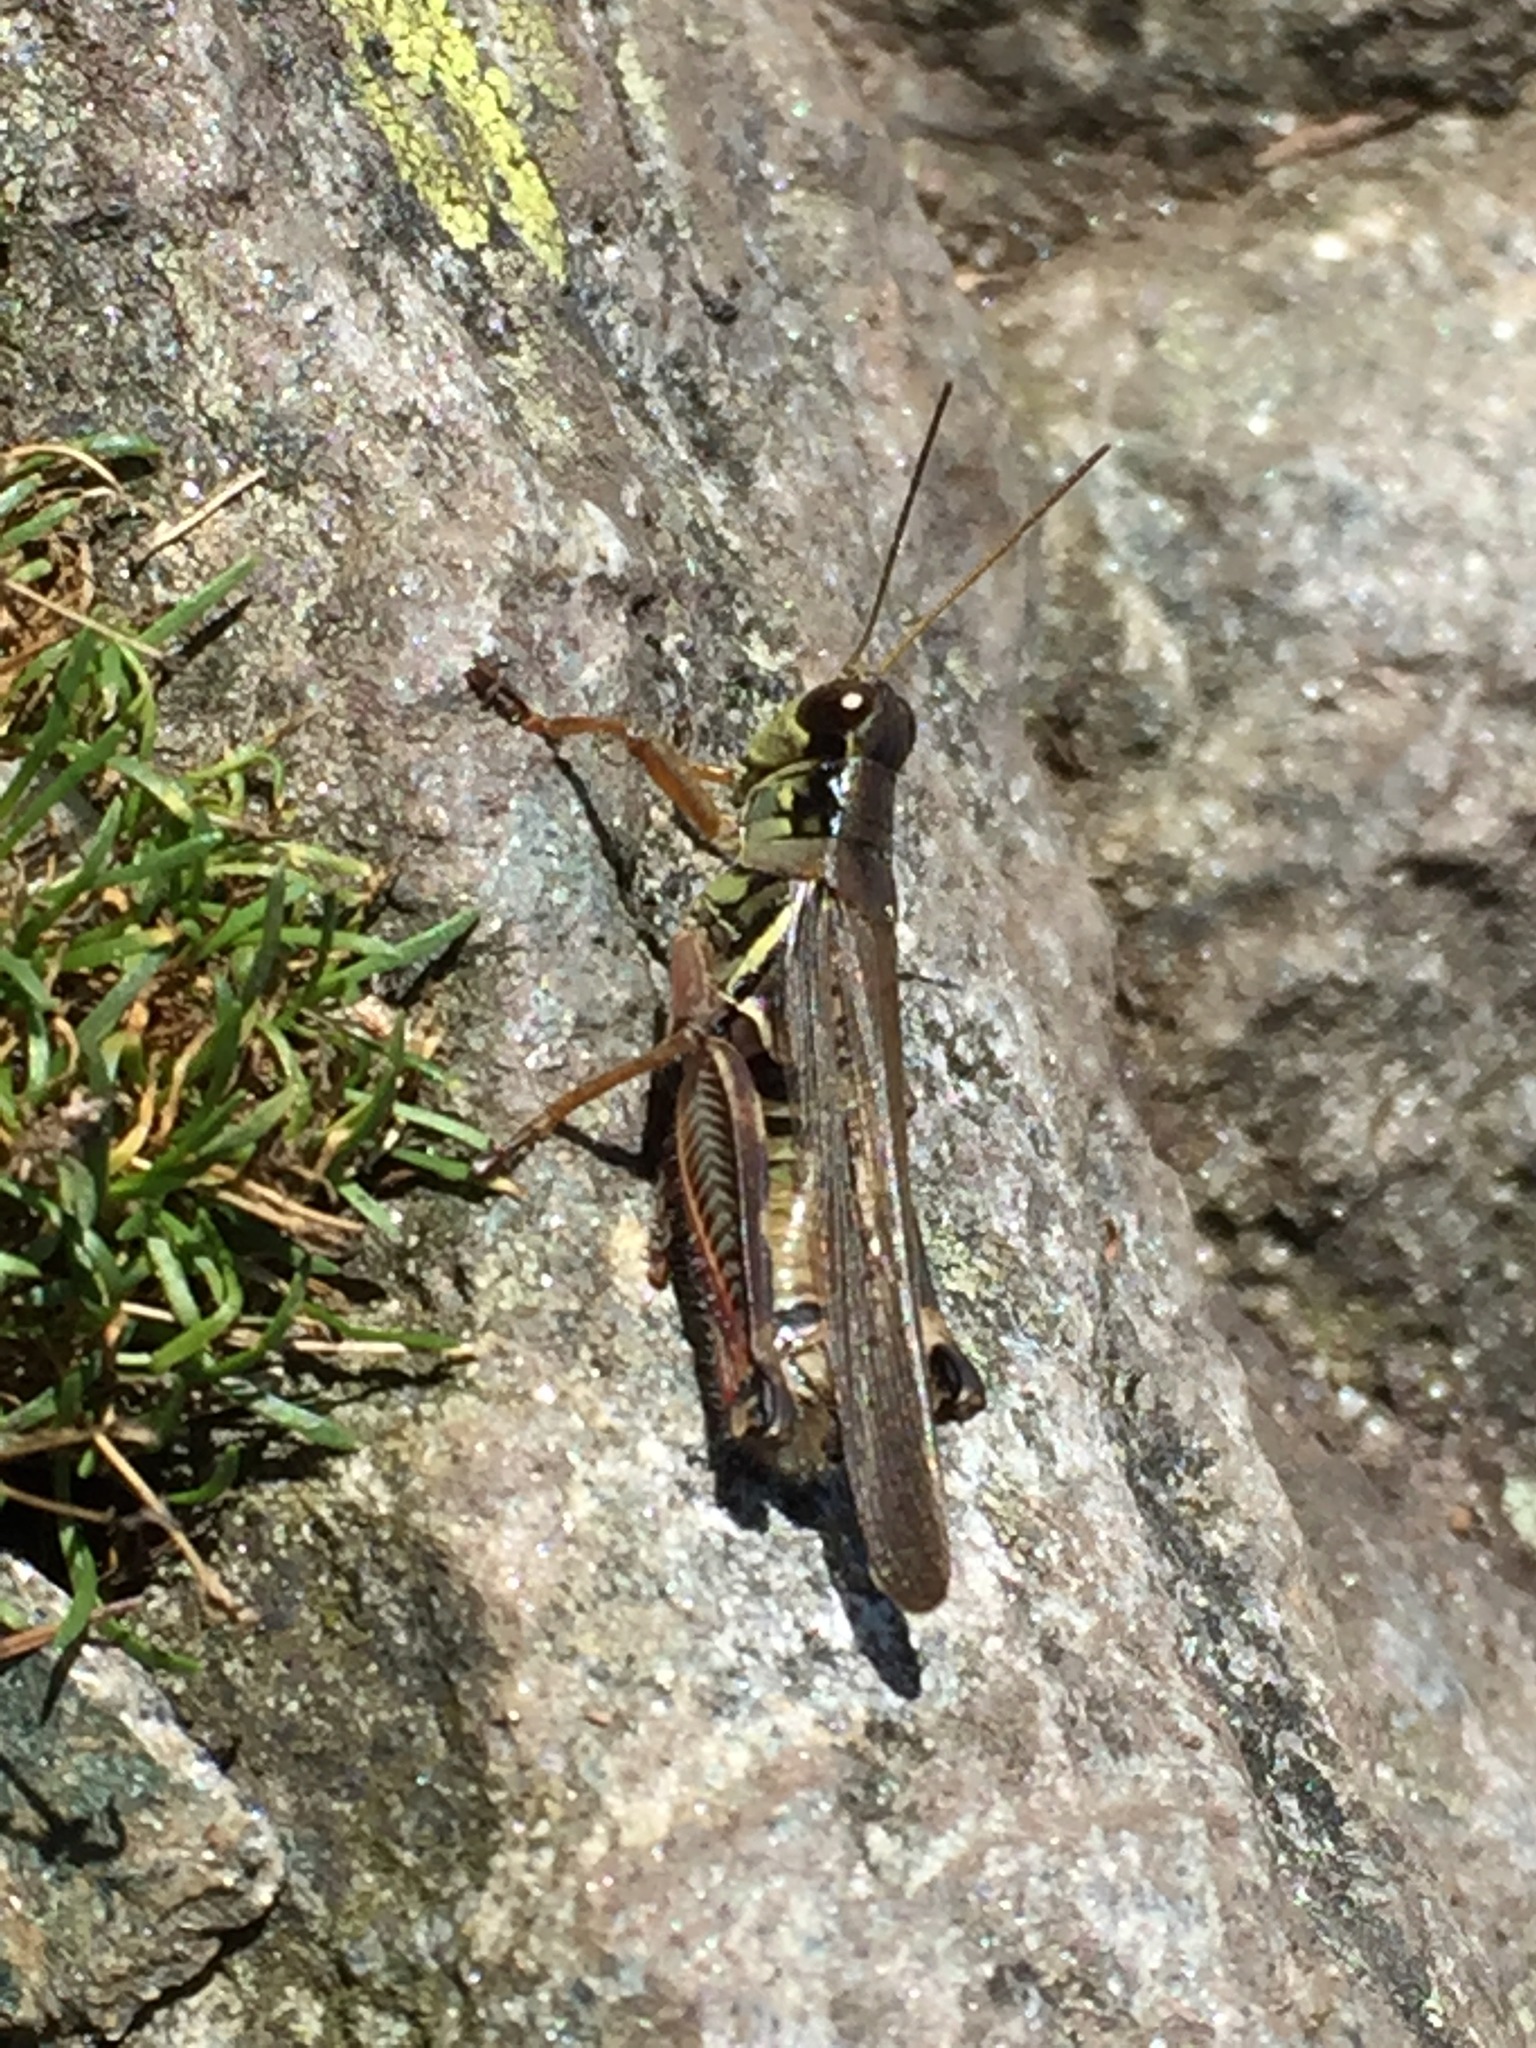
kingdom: Animalia
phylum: Arthropoda
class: Insecta
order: Orthoptera
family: Acrididae
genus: Melanoplus
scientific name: Melanoplus femurrubrum
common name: Red-legged grasshopper
